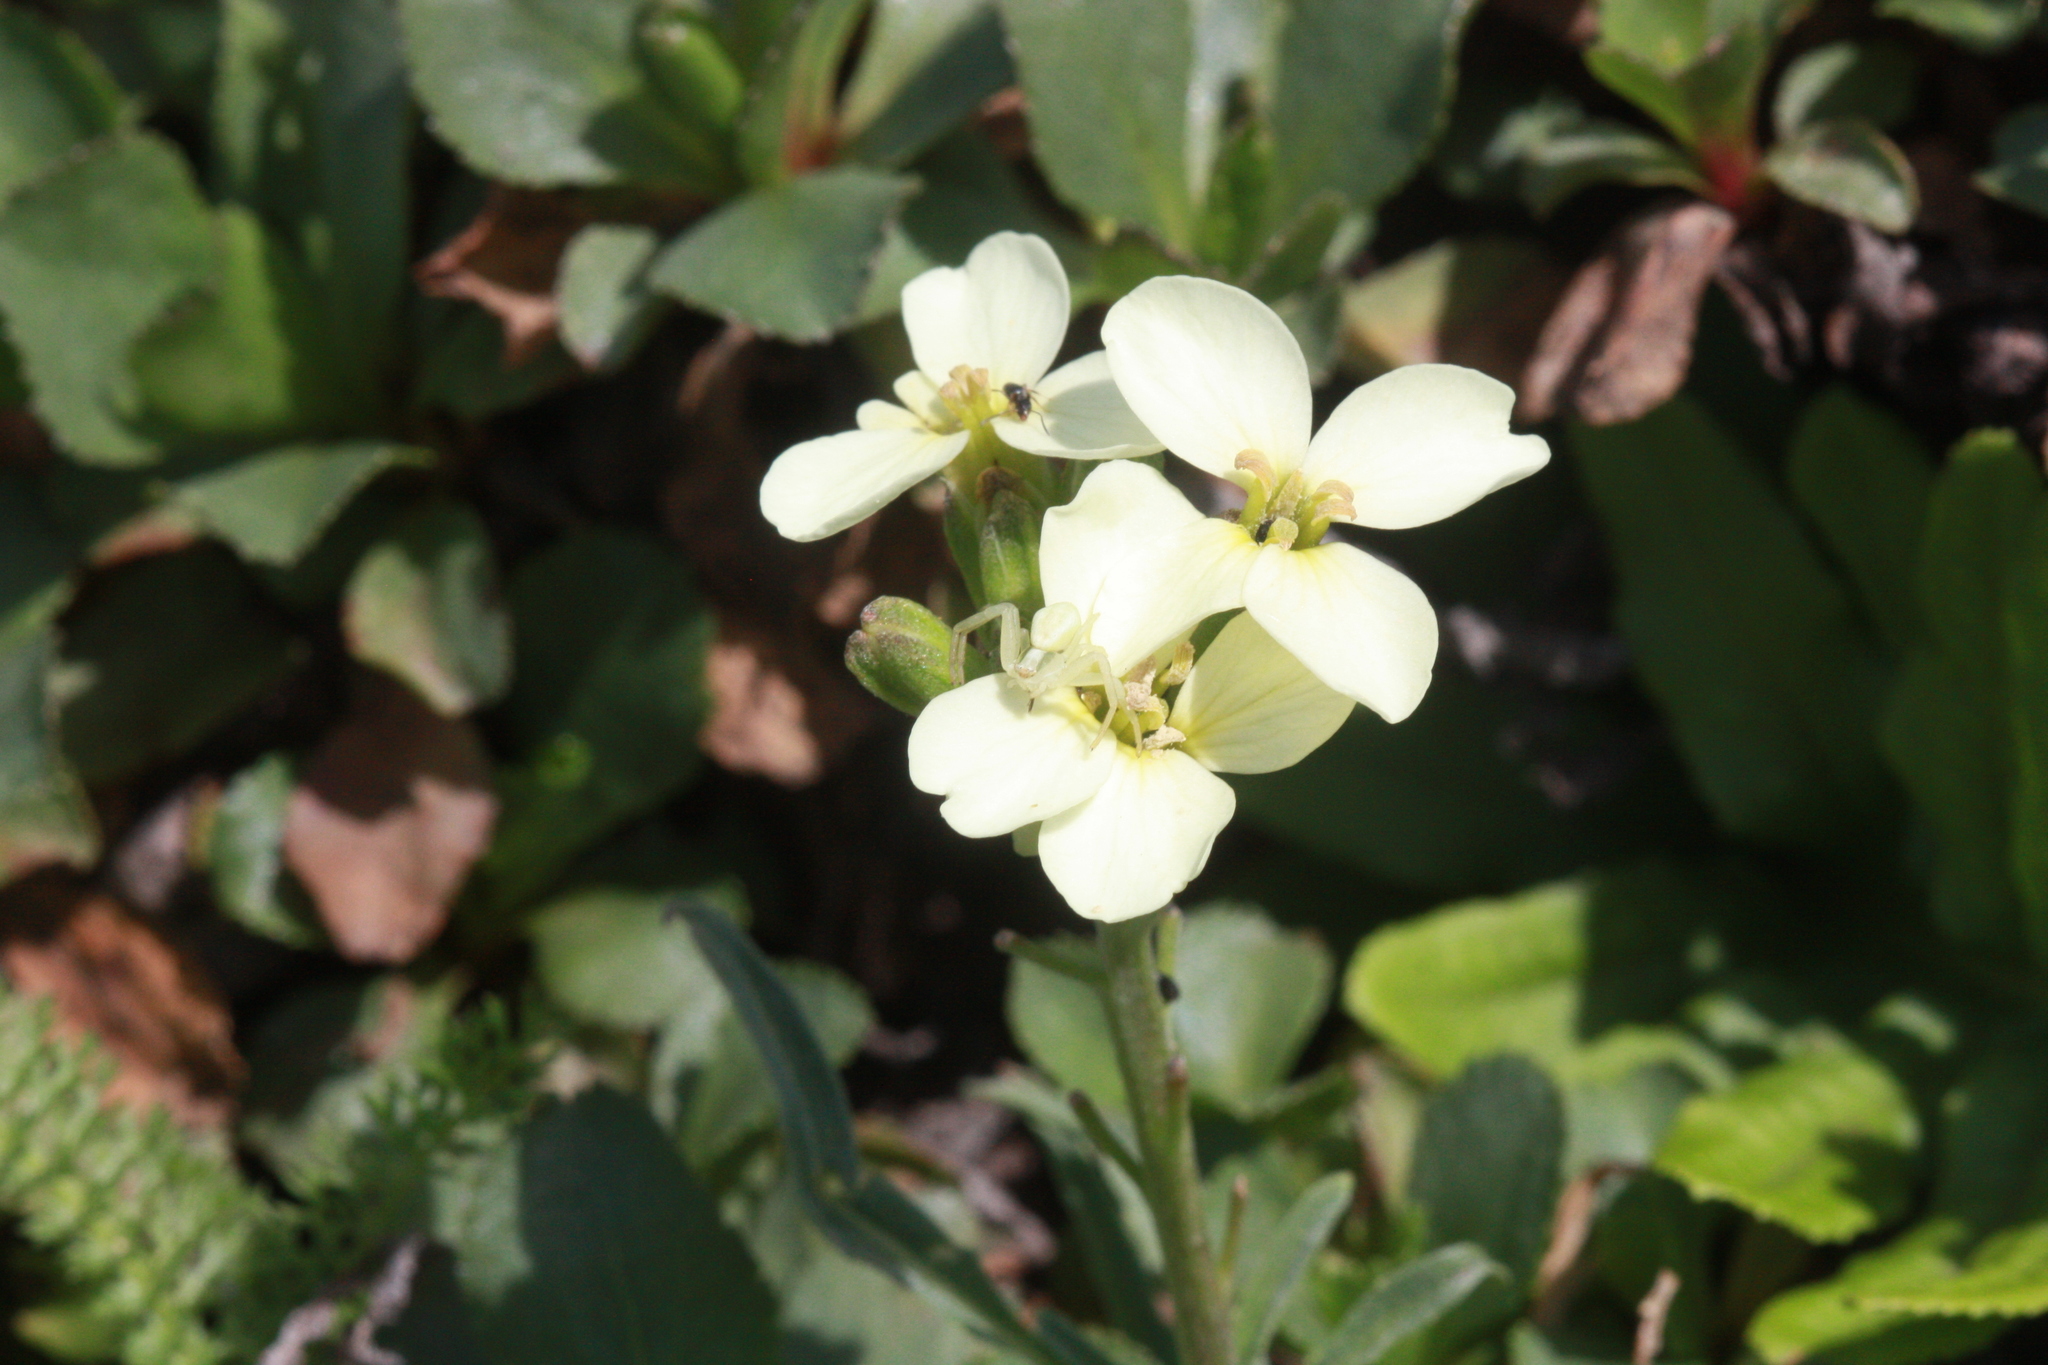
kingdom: Plantae
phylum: Tracheophyta
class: Magnoliopsida
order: Brassicales
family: Brassicaceae
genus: Erysimum
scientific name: Erysimum franciscanum
